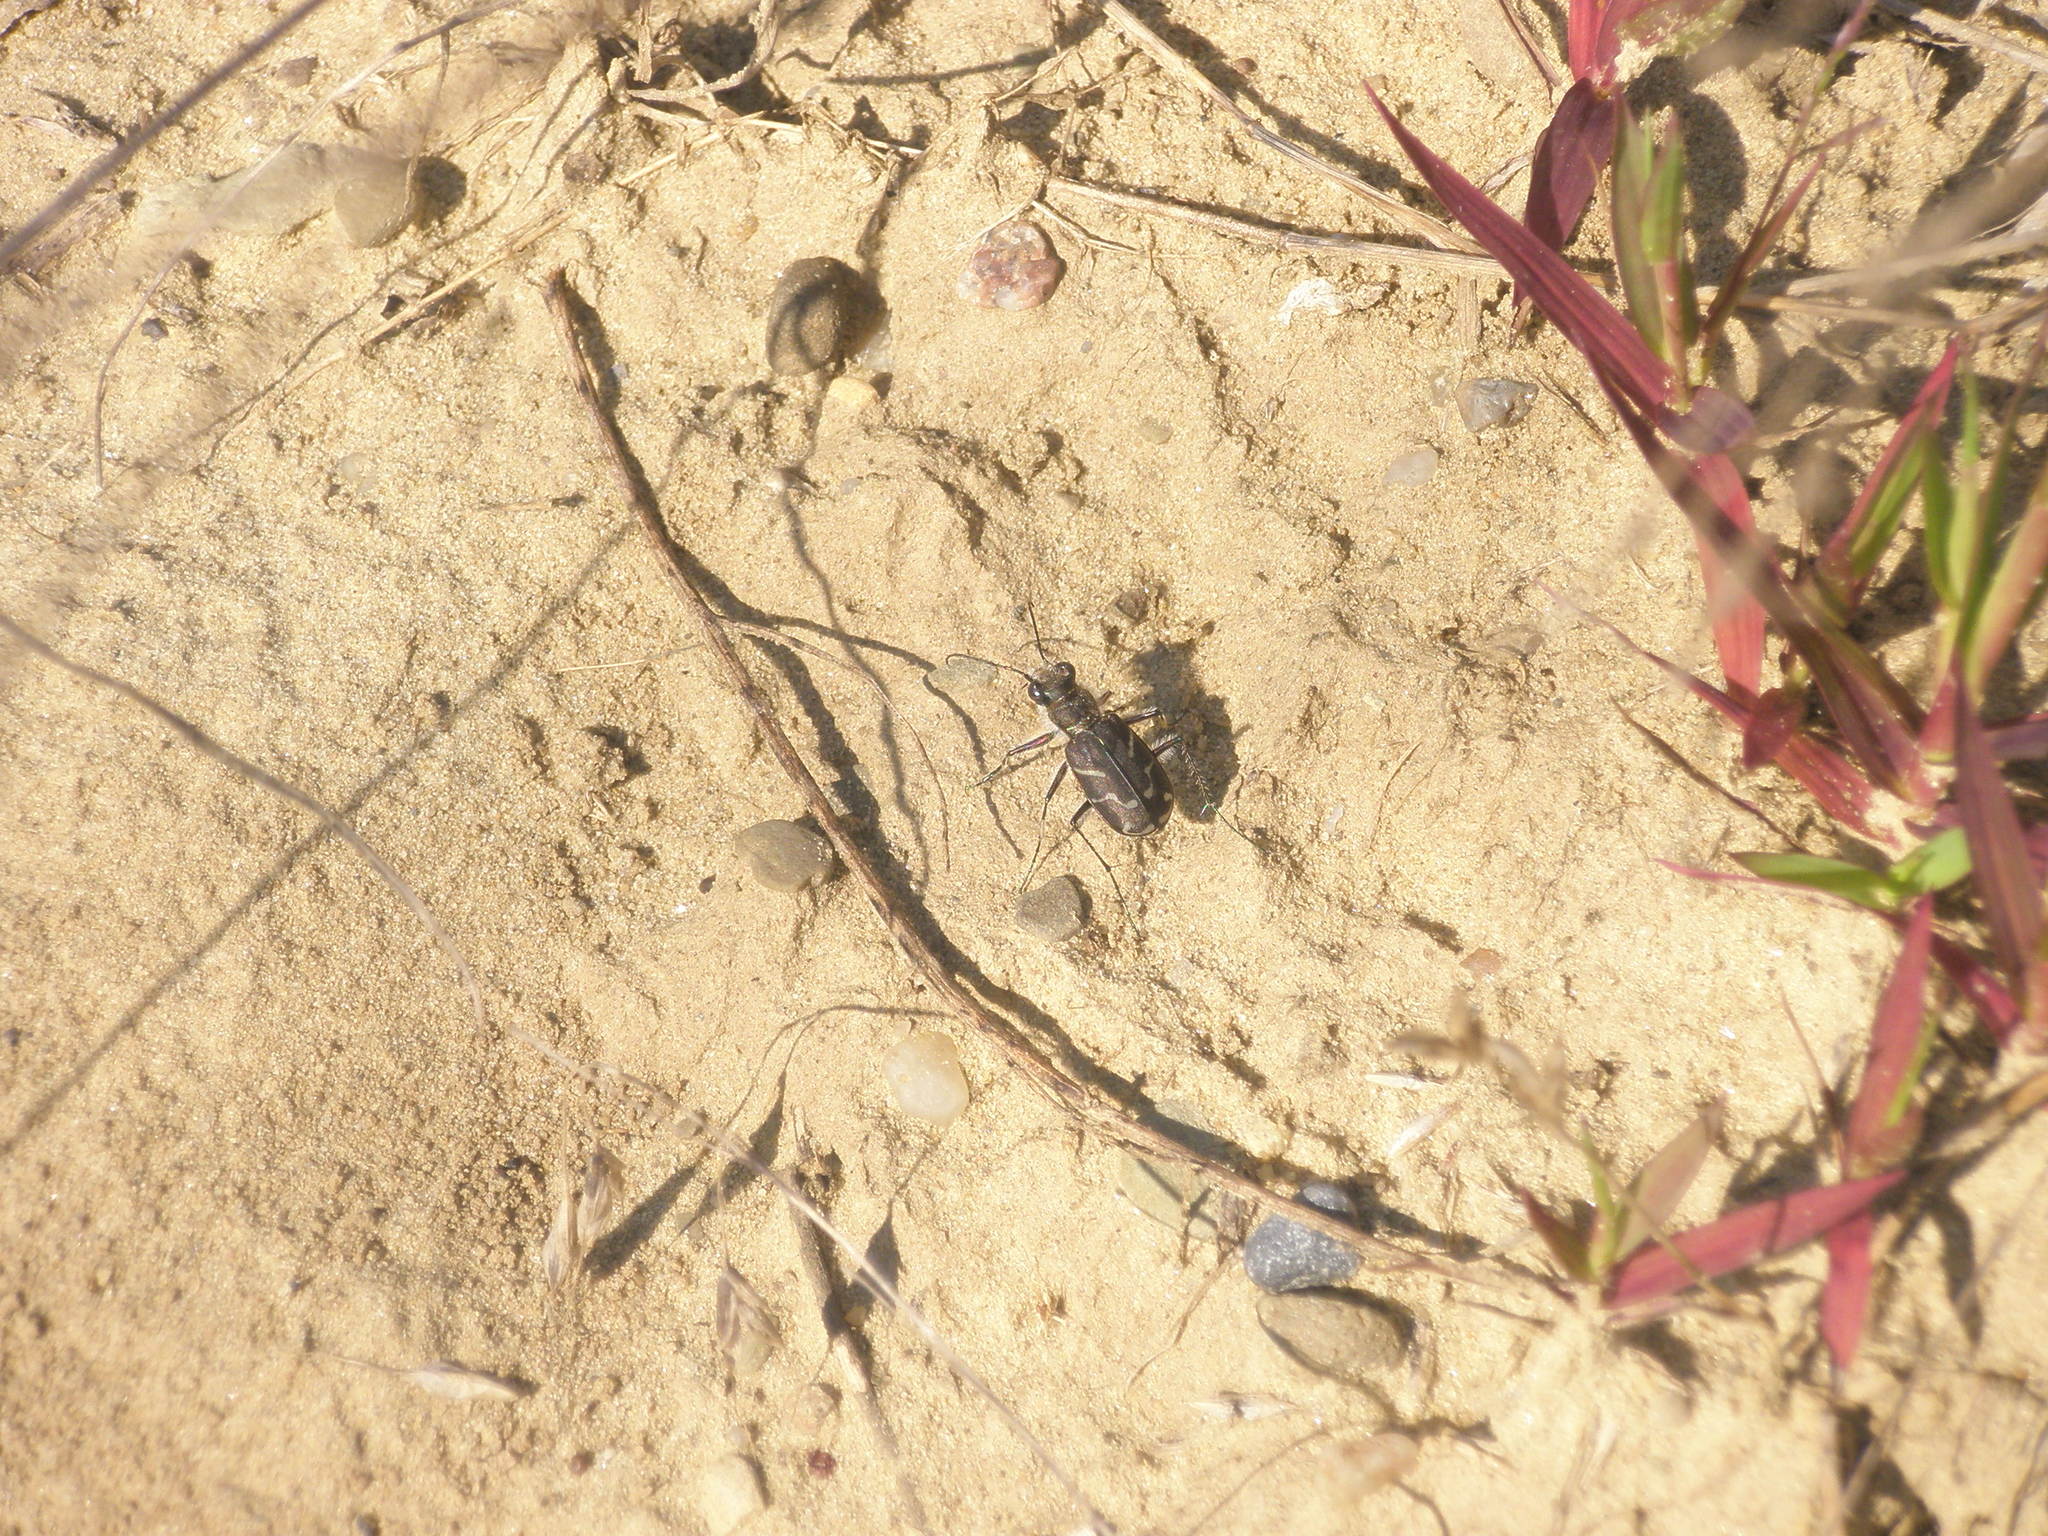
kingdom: Animalia
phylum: Arthropoda
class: Insecta
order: Coleoptera
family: Carabidae
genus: Cicindela
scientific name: Cicindela tranquebarica
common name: Oblique-lined tiger beetle
